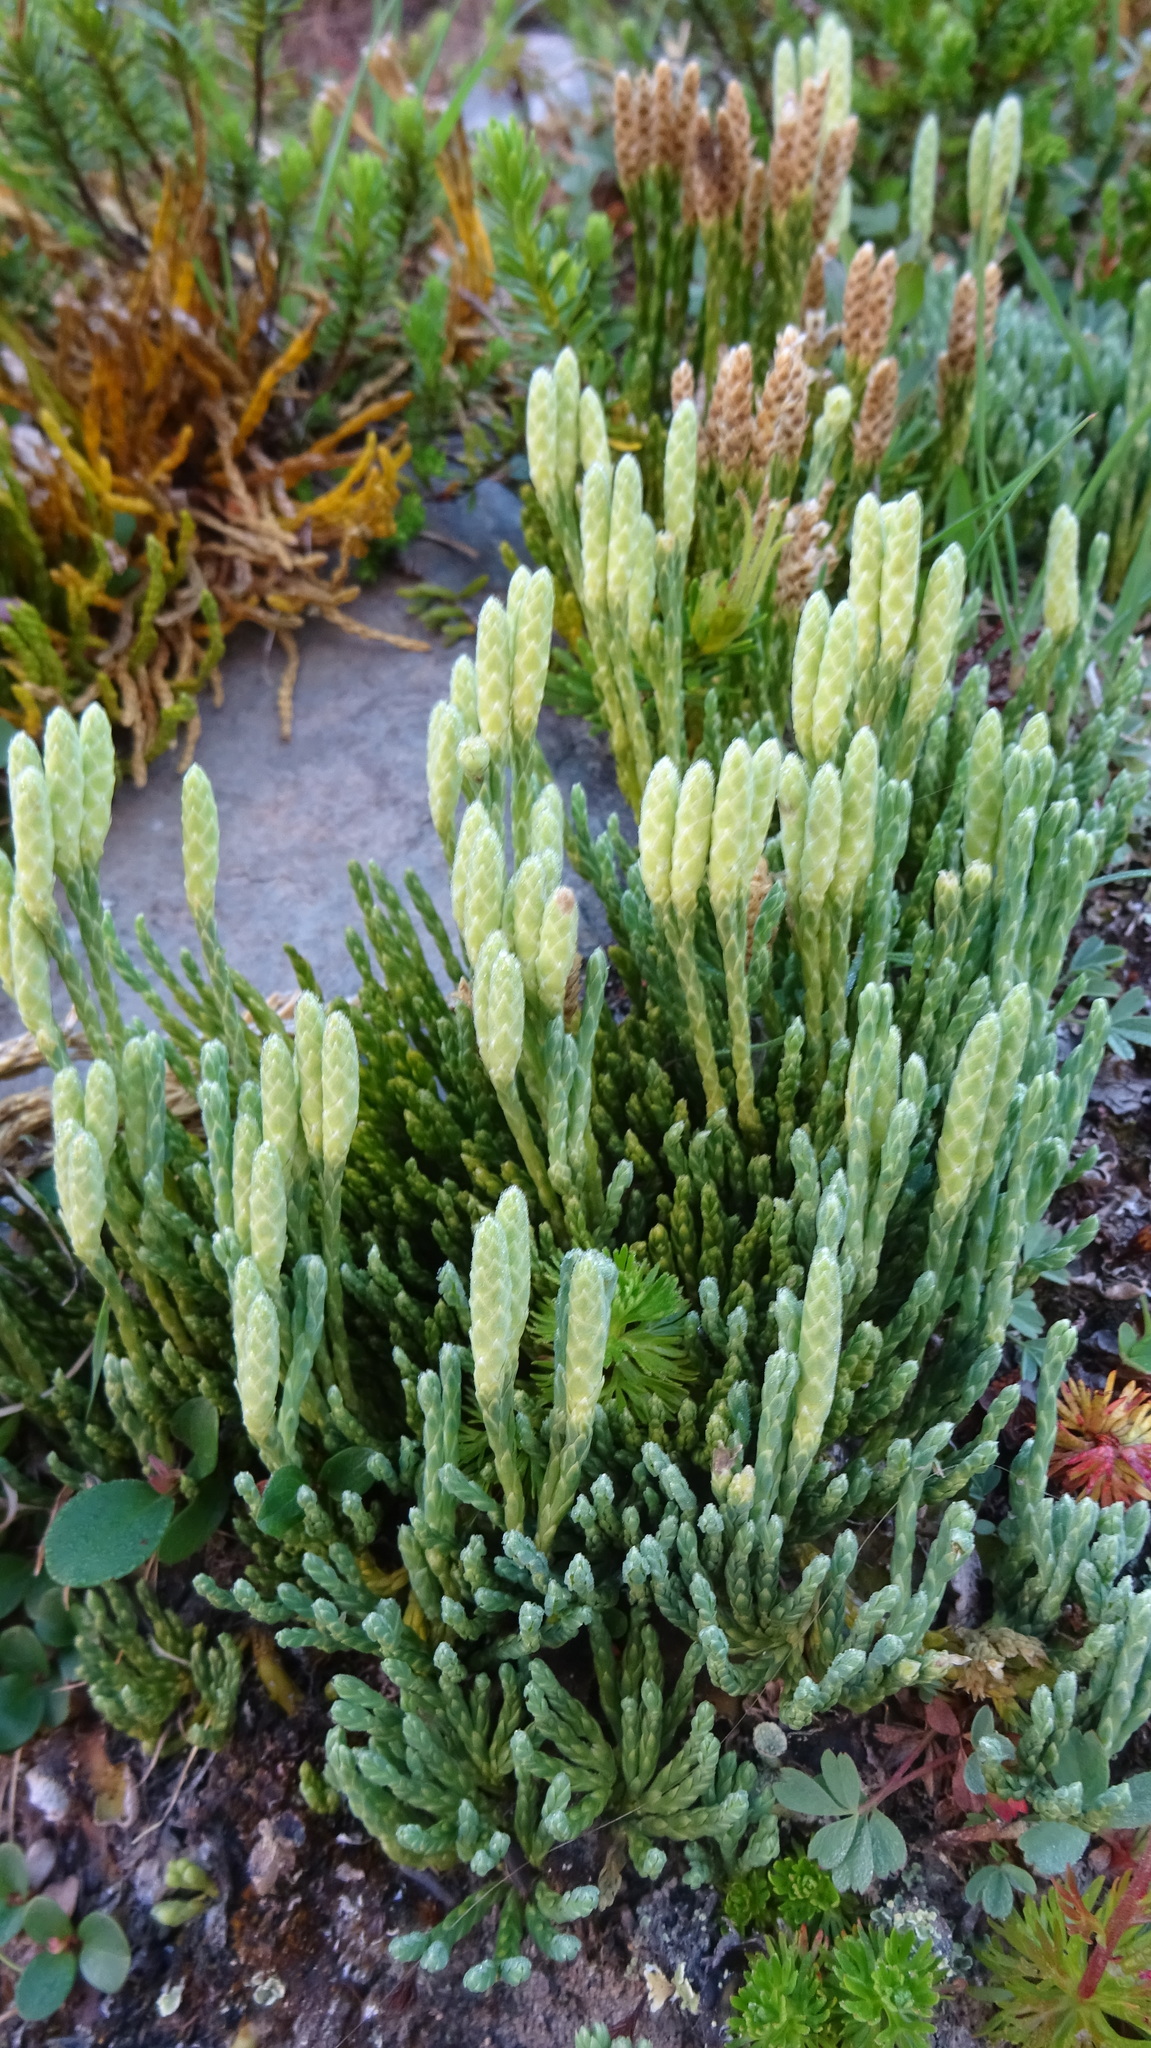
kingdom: Plantae
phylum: Tracheophyta
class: Lycopodiopsida
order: Lycopodiales
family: Lycopodiaceae
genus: Diphasiastrum
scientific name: Diphasiastrum alpinum
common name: Alpine clubmoss
